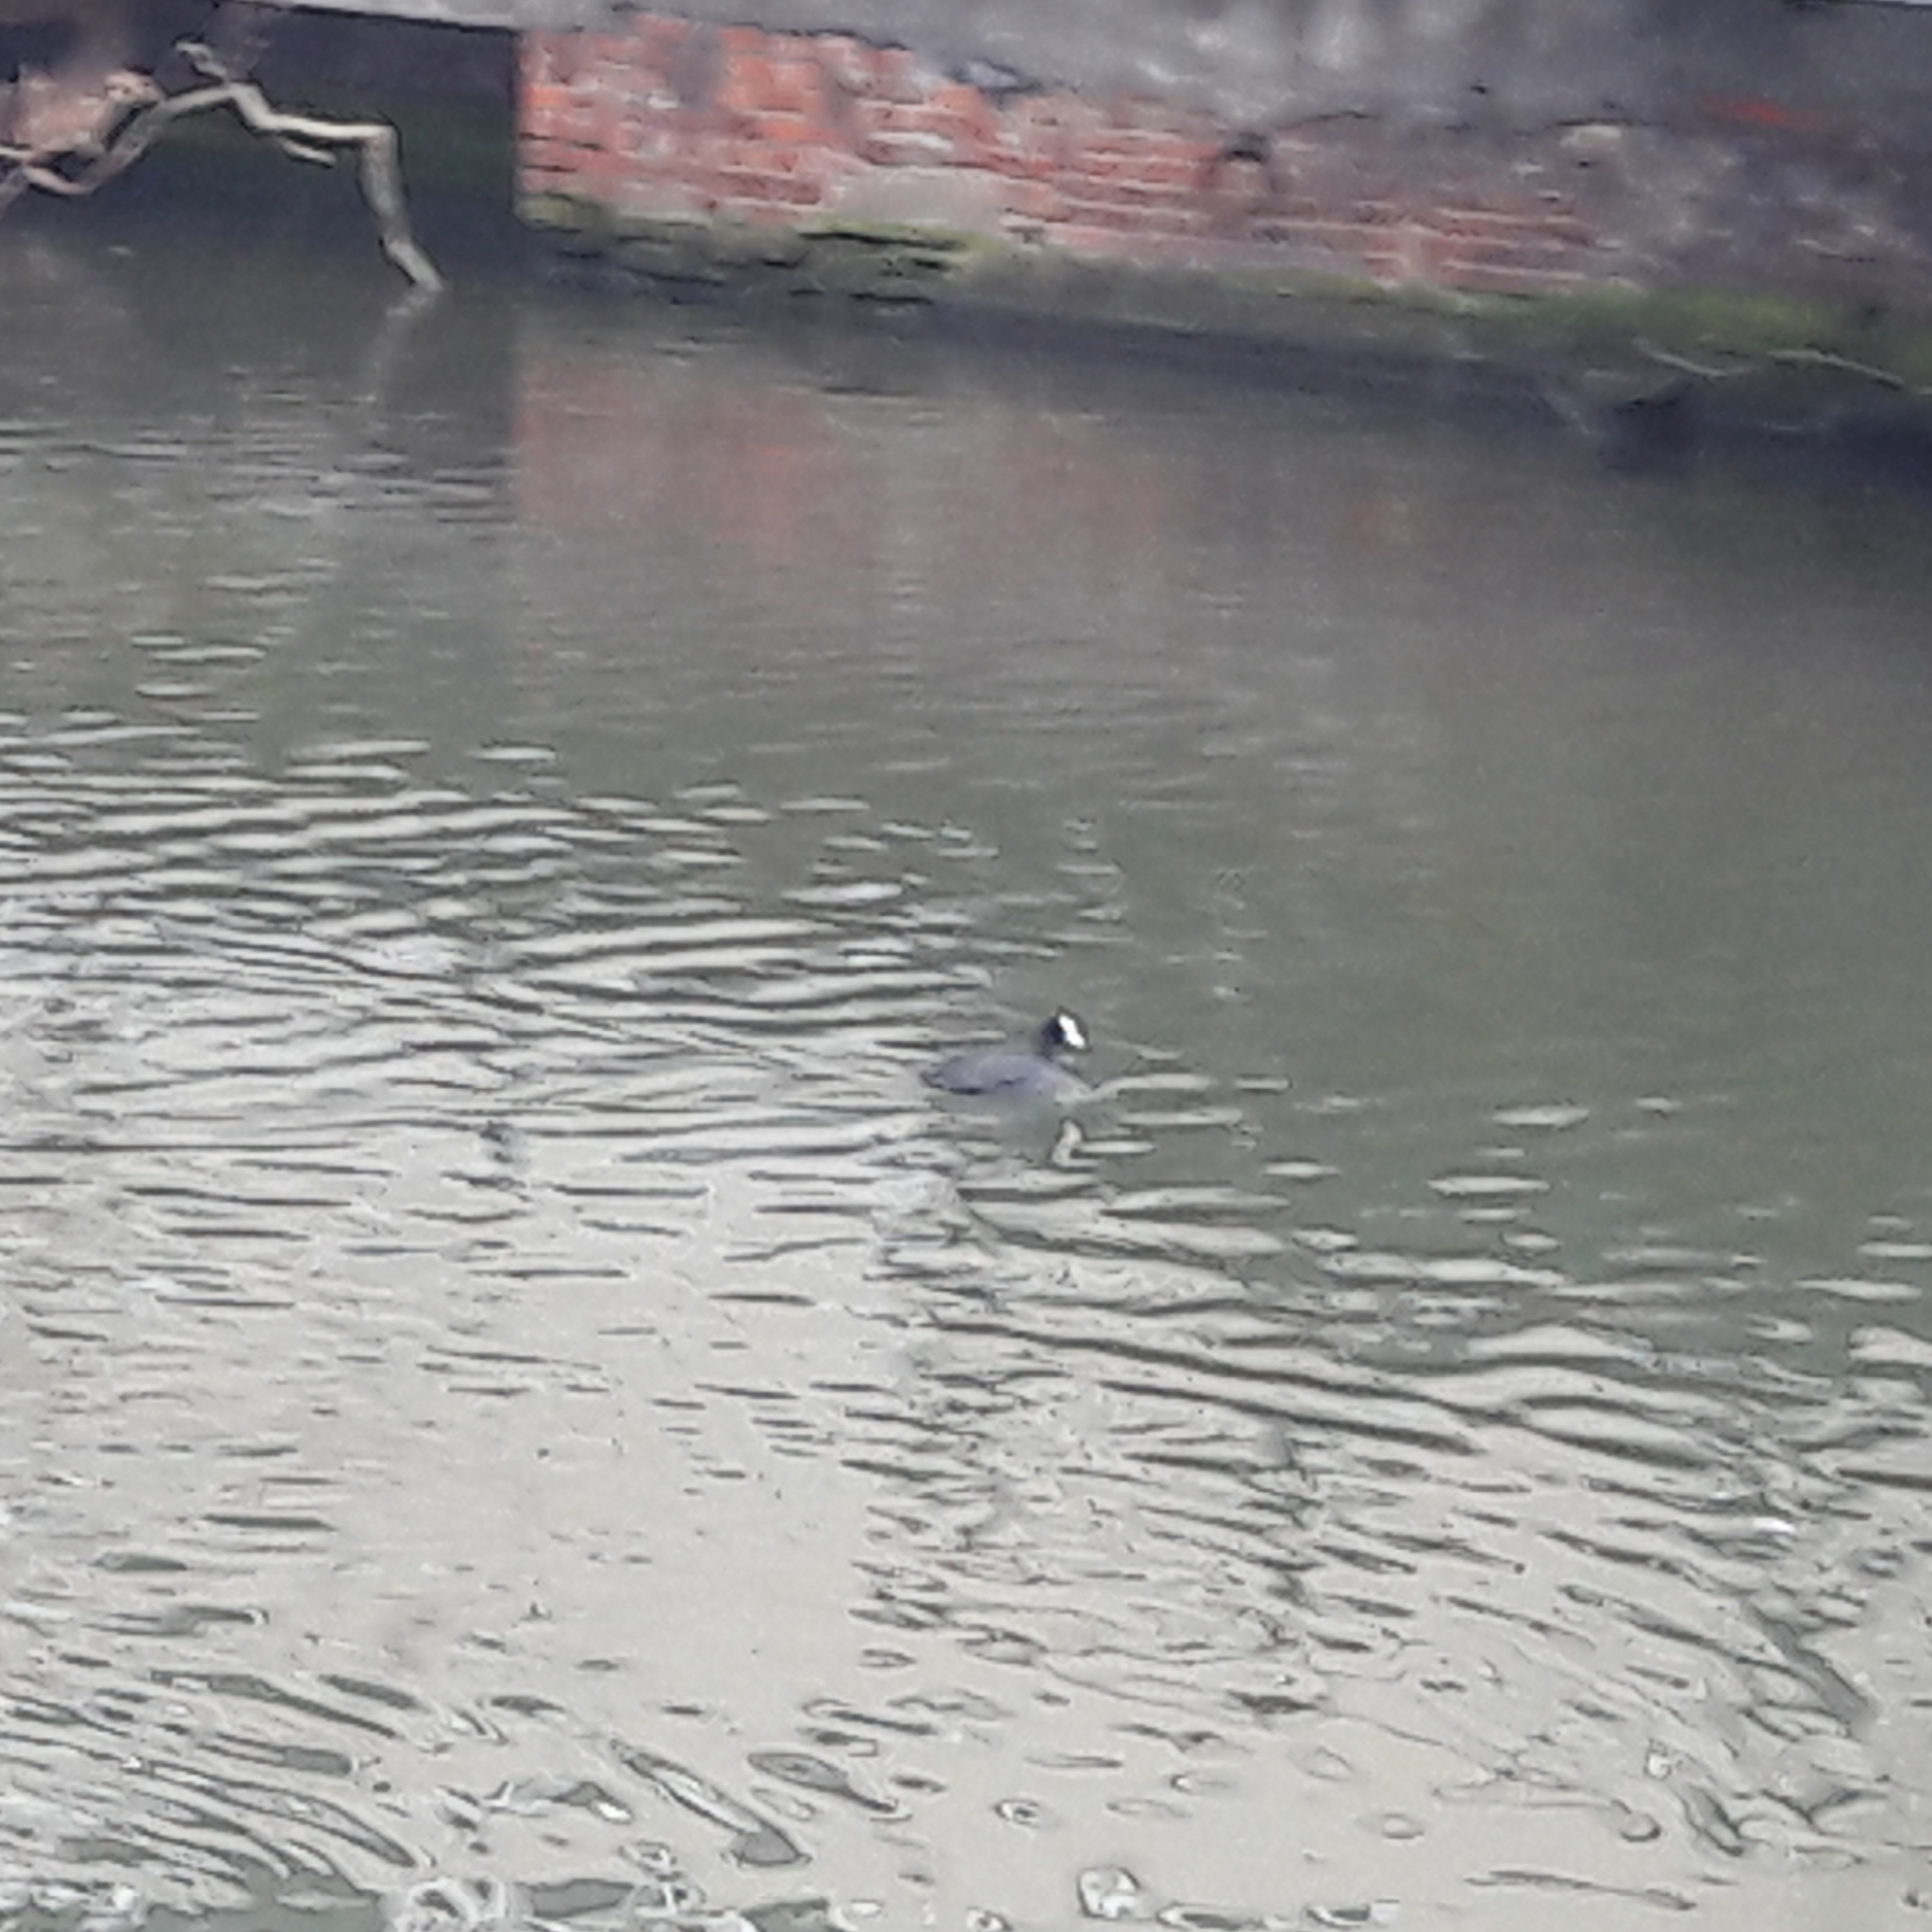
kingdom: Animalia
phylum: Chordata
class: Aves
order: Gruiformes
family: Rallidae
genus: Fulica
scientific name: Fulica atra
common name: Eurasian coot
